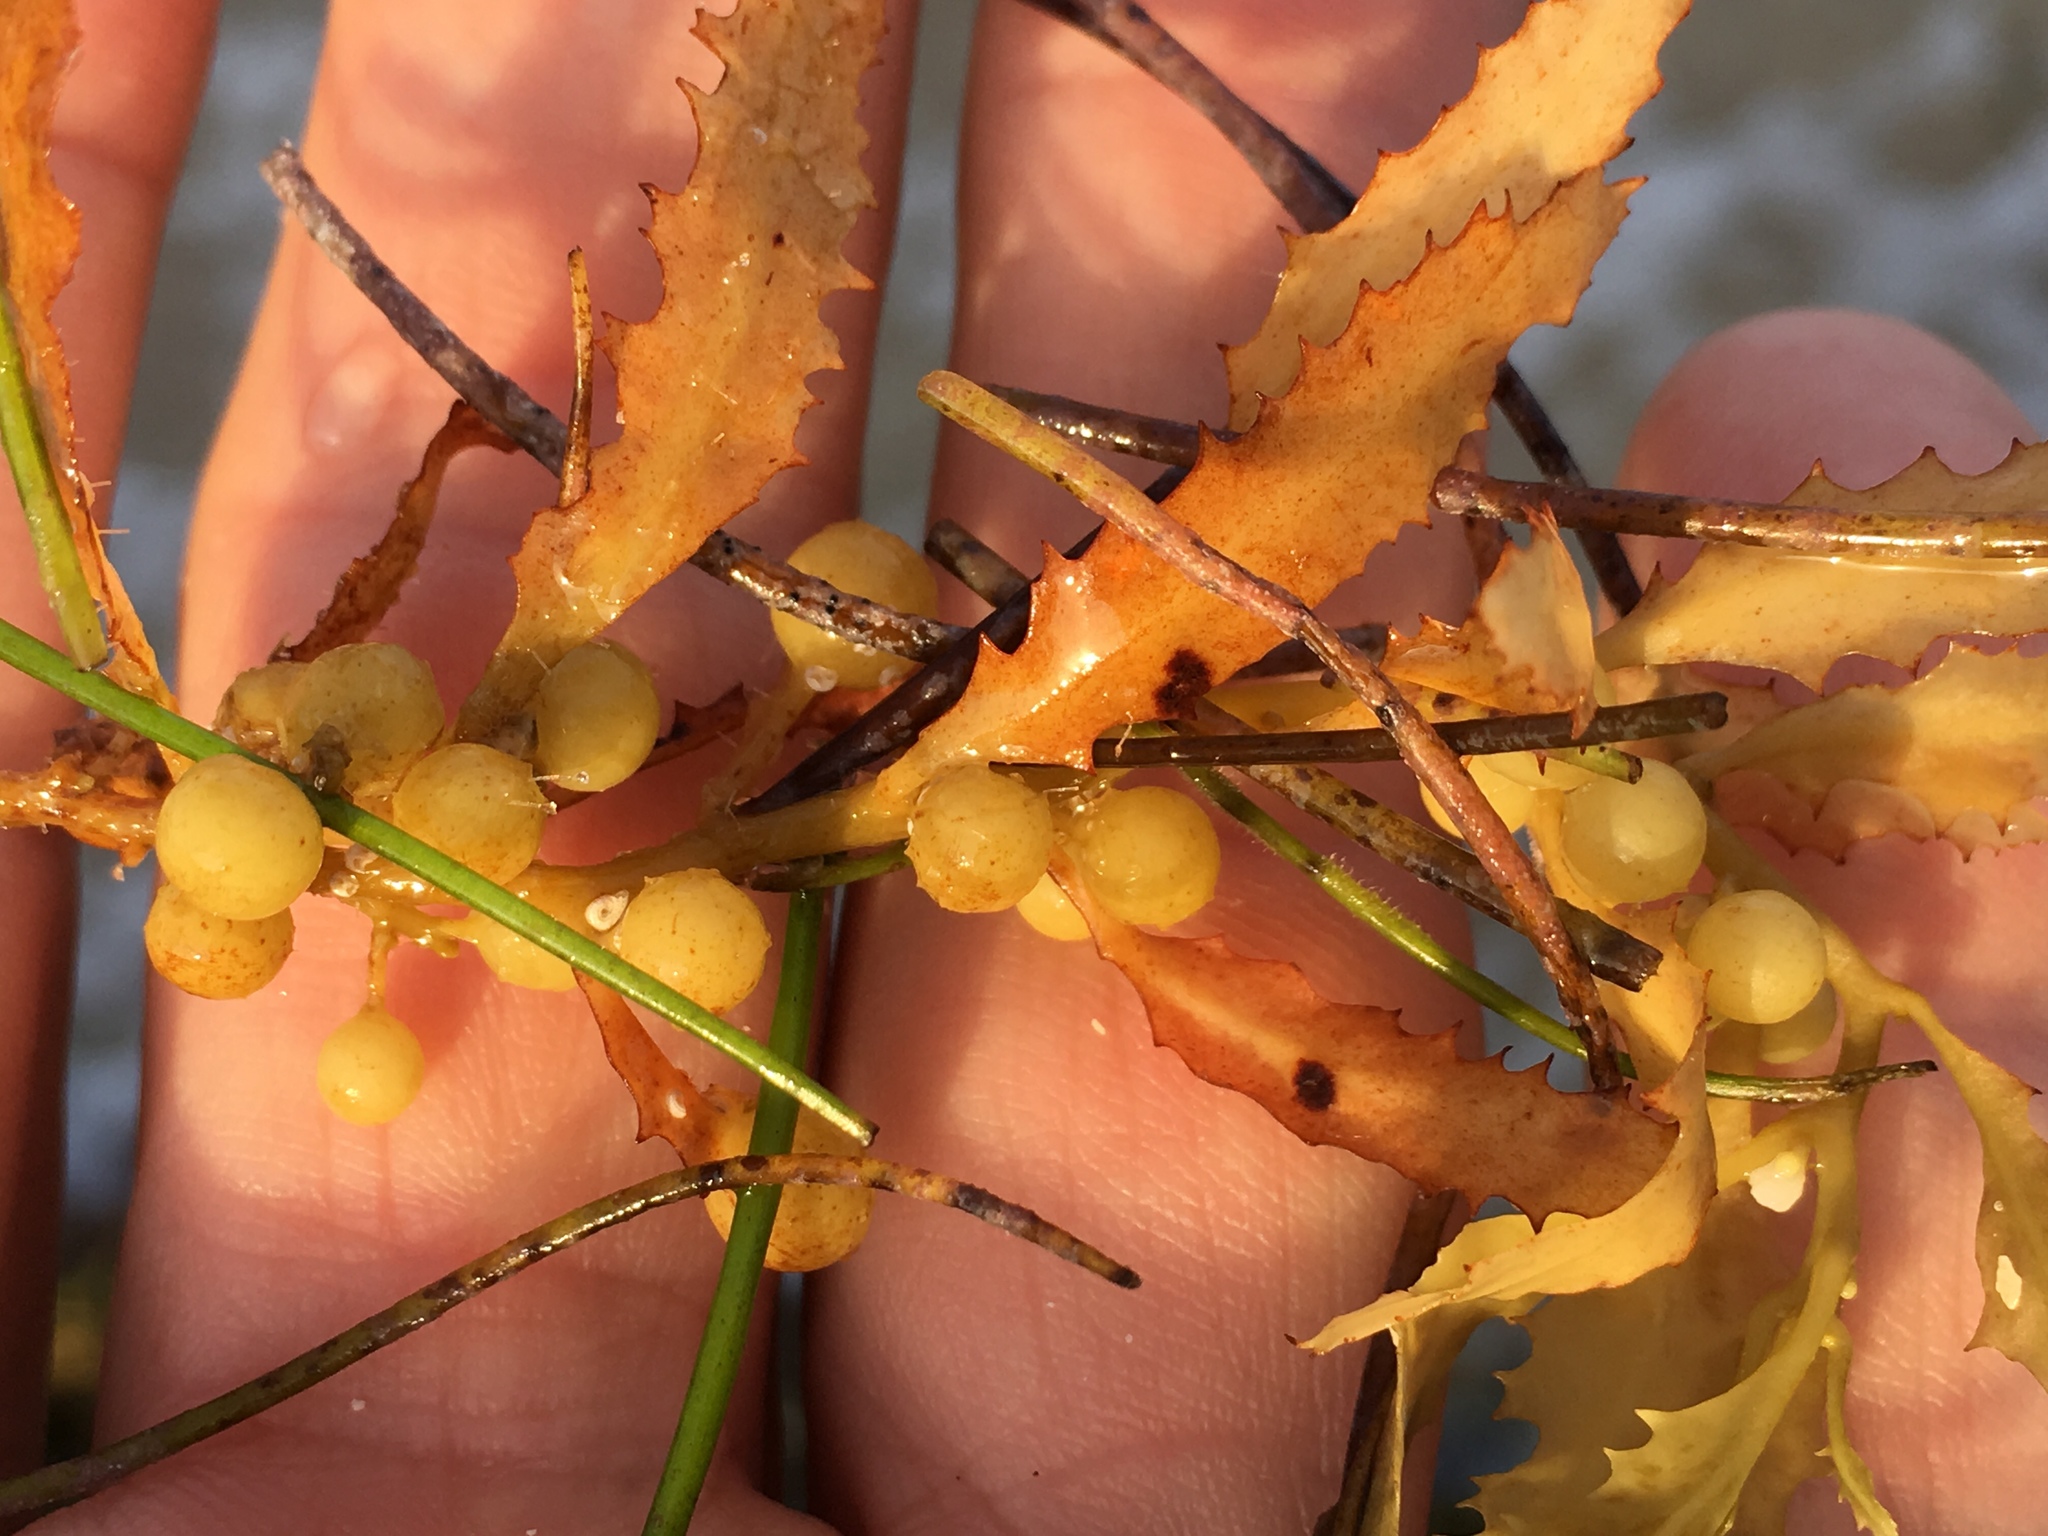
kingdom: Chromista
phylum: Ochrophyta
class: Phaeophyceae
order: Fucales
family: Sargassaceae
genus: Sargassum
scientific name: Sargassum fluitans
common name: Sargassum seaweed
